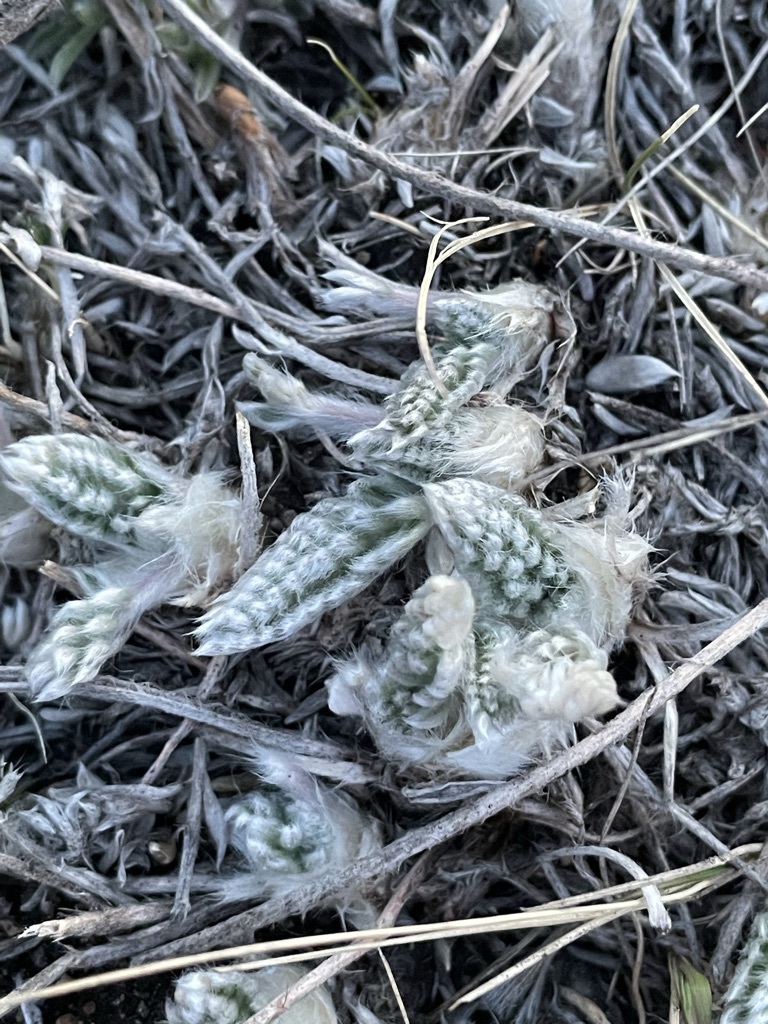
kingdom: Plantae
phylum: Tracheophyta
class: Magnoliopsida
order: Fabales
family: Fabaceae
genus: Oxytropis
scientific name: Oxytropis splendens
